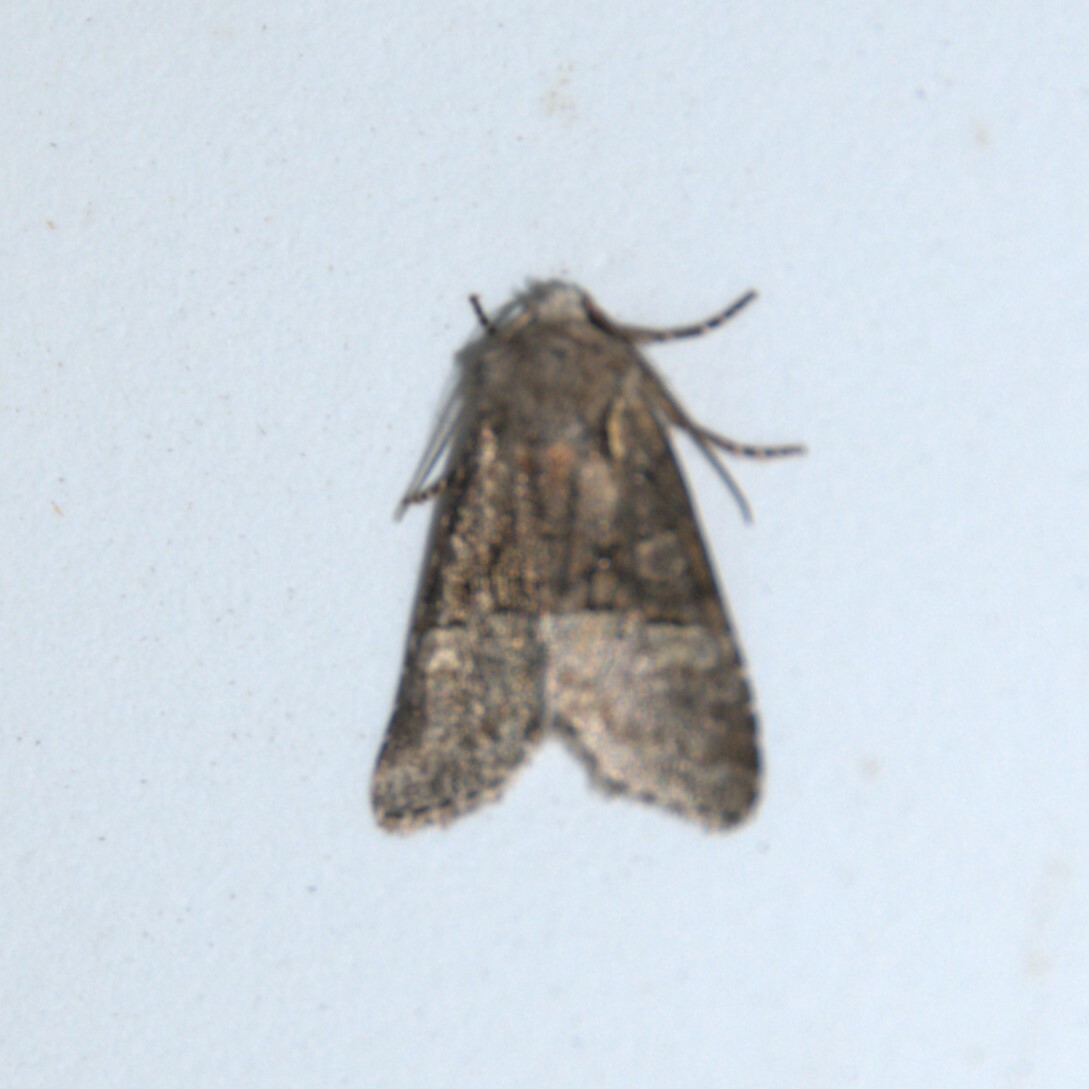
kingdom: Animalia
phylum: Arthropoda
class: Insecta
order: Lepidoptera
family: Noctuidae
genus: Brachylomia
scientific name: Brachylomia viminalis
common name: Minor shoulder-knot
